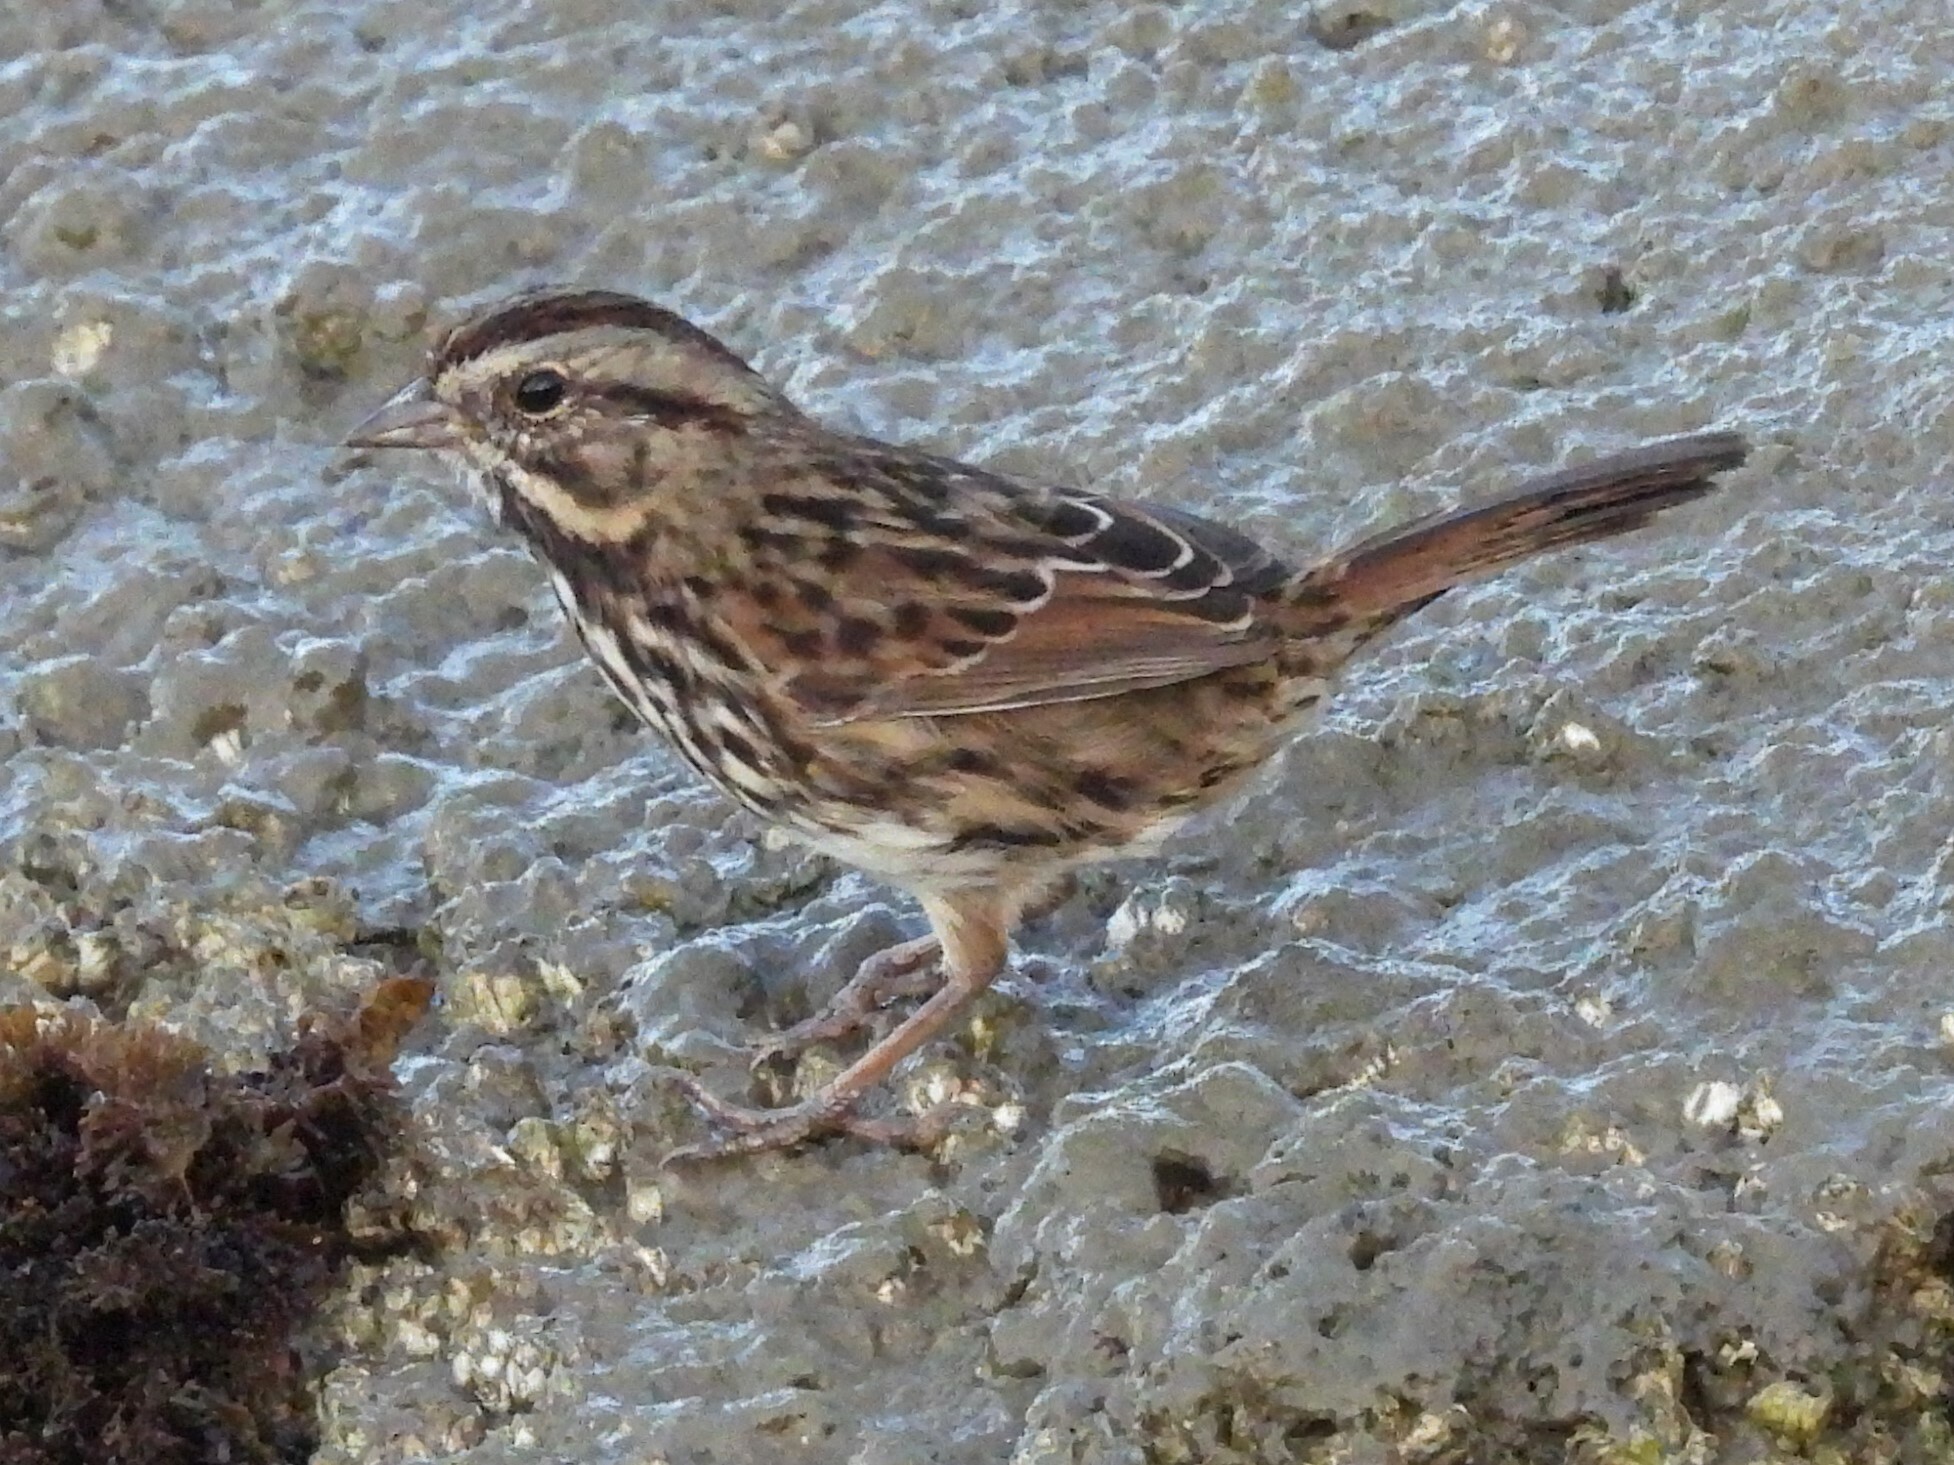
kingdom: Animalia
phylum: Chordata
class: Aves
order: Passeriformes
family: Passerellidae
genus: Melospiza
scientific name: Melospiza melodia
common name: Song sparrow
